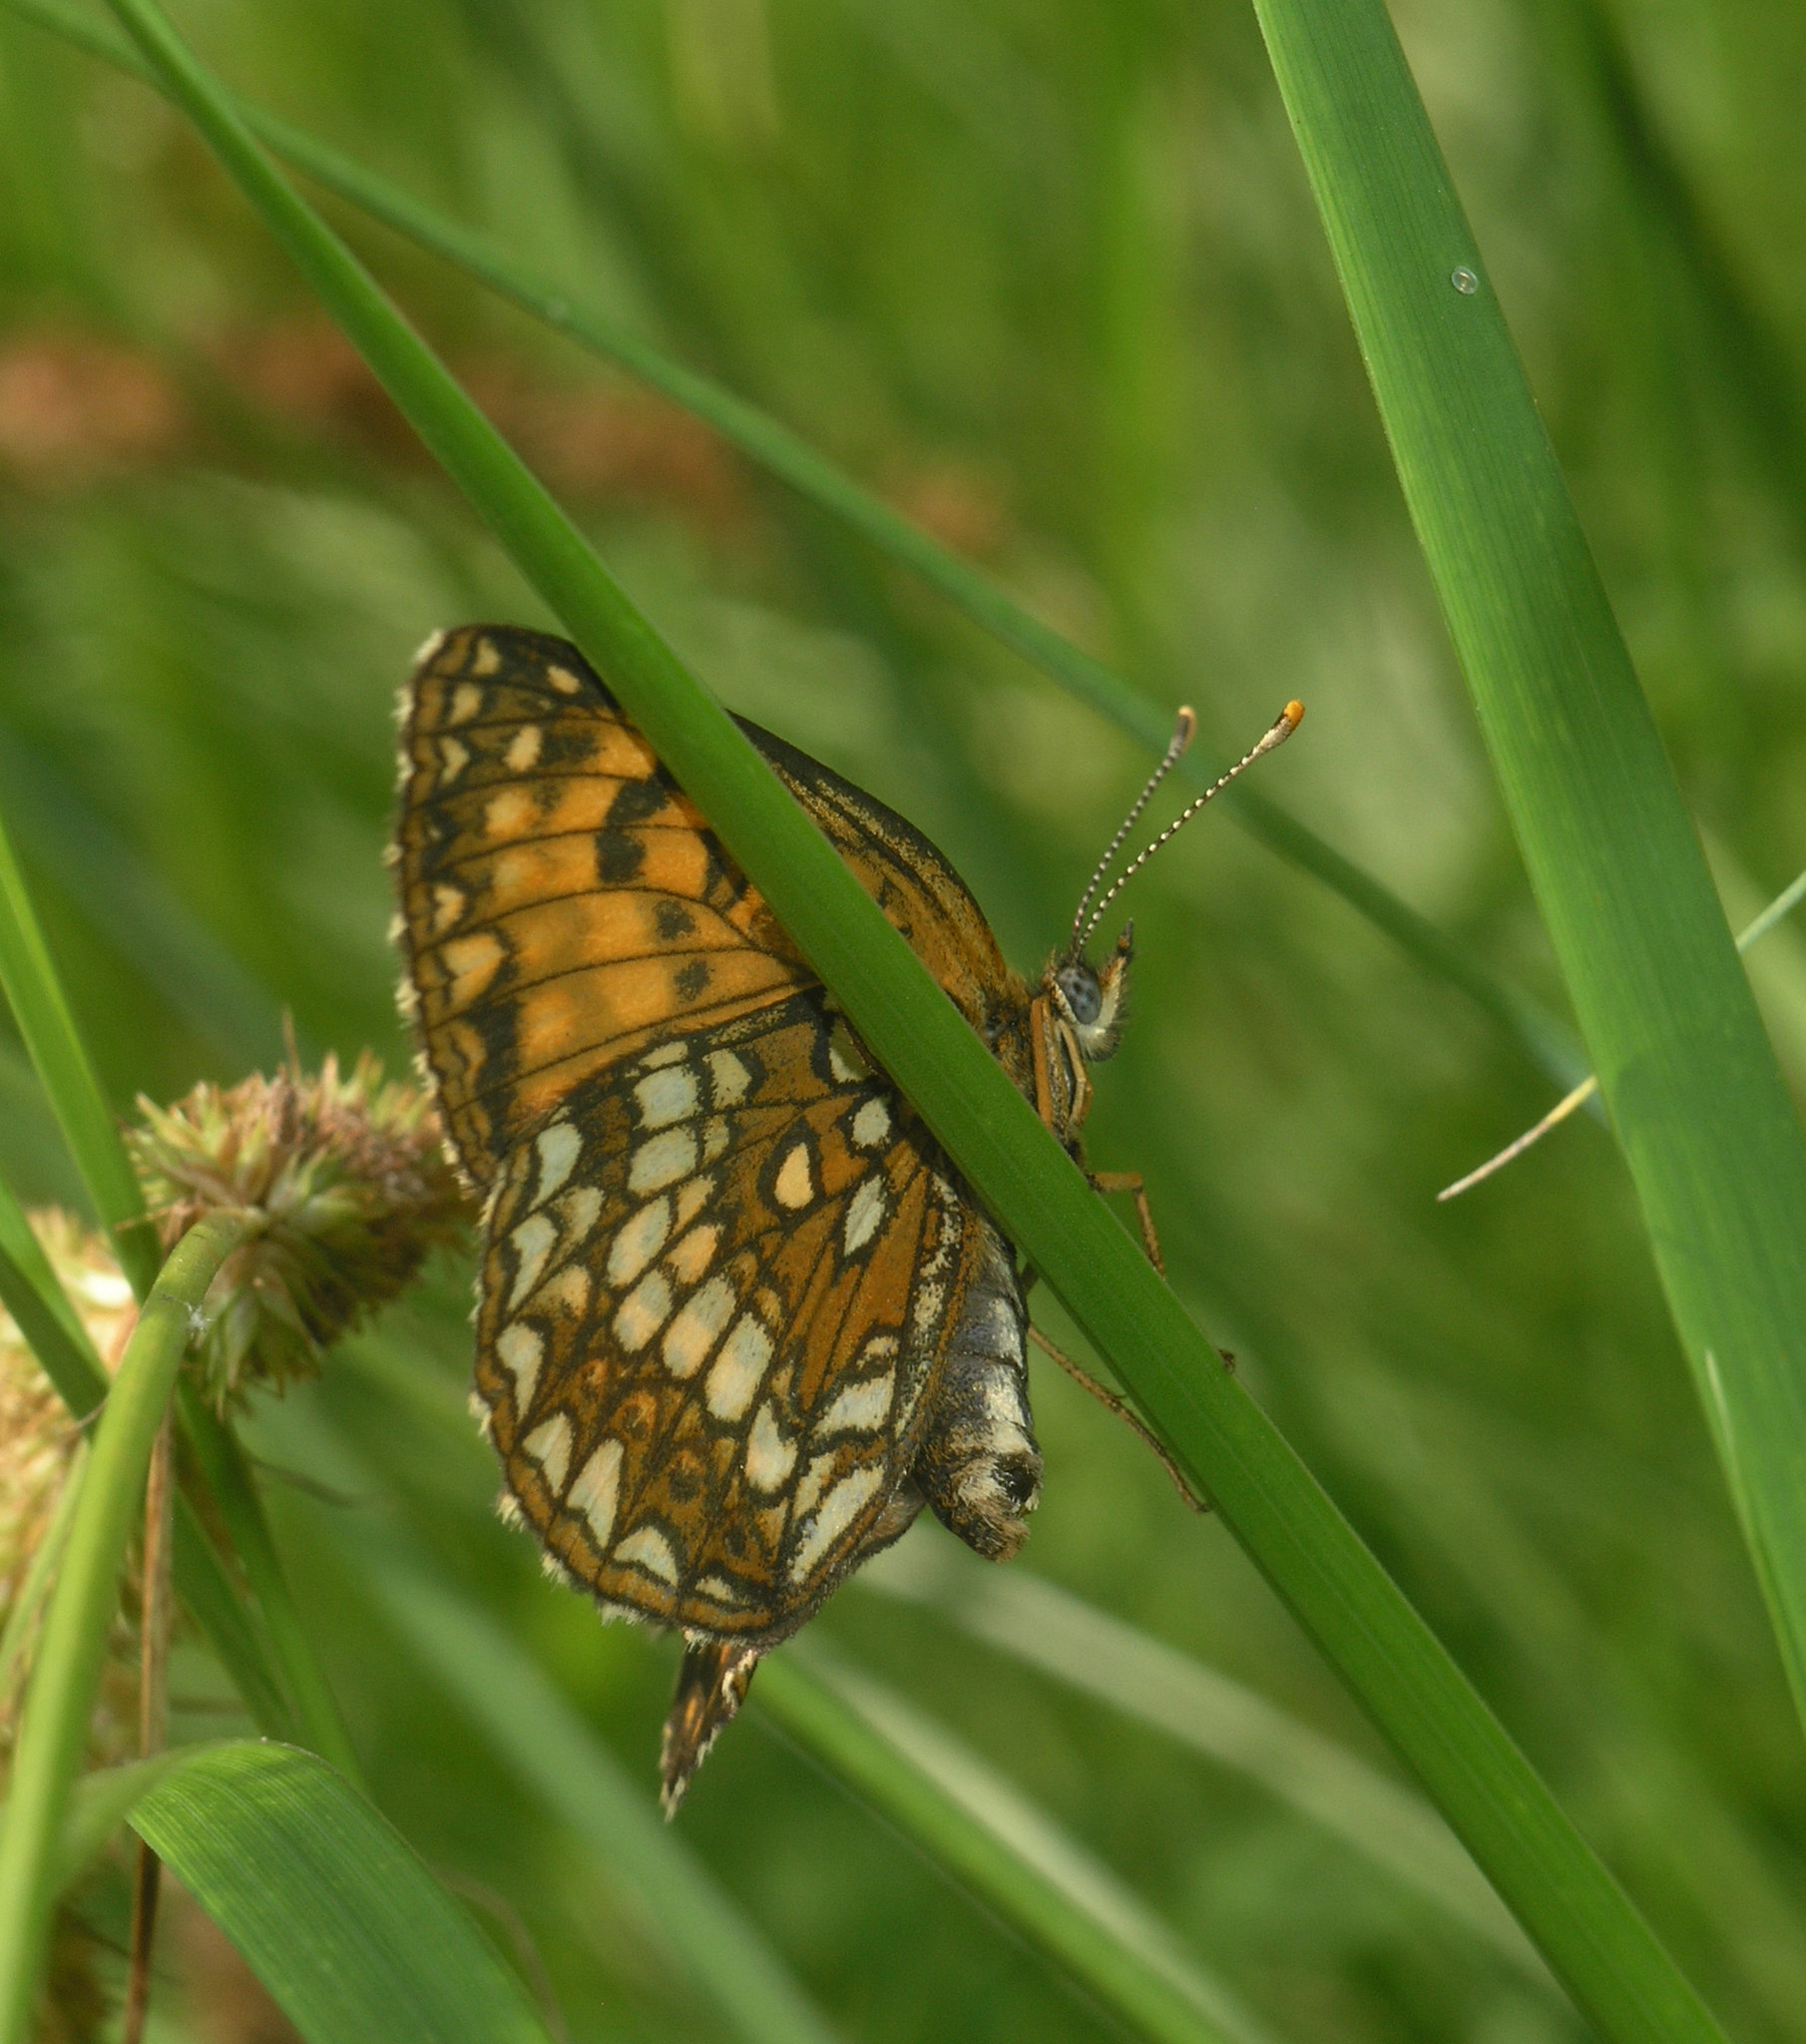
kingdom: Animalia
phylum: Arthropoda
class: Insecta
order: Lepidoptera
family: Nymphalidae
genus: Mellicta
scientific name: Mellicta athalia
